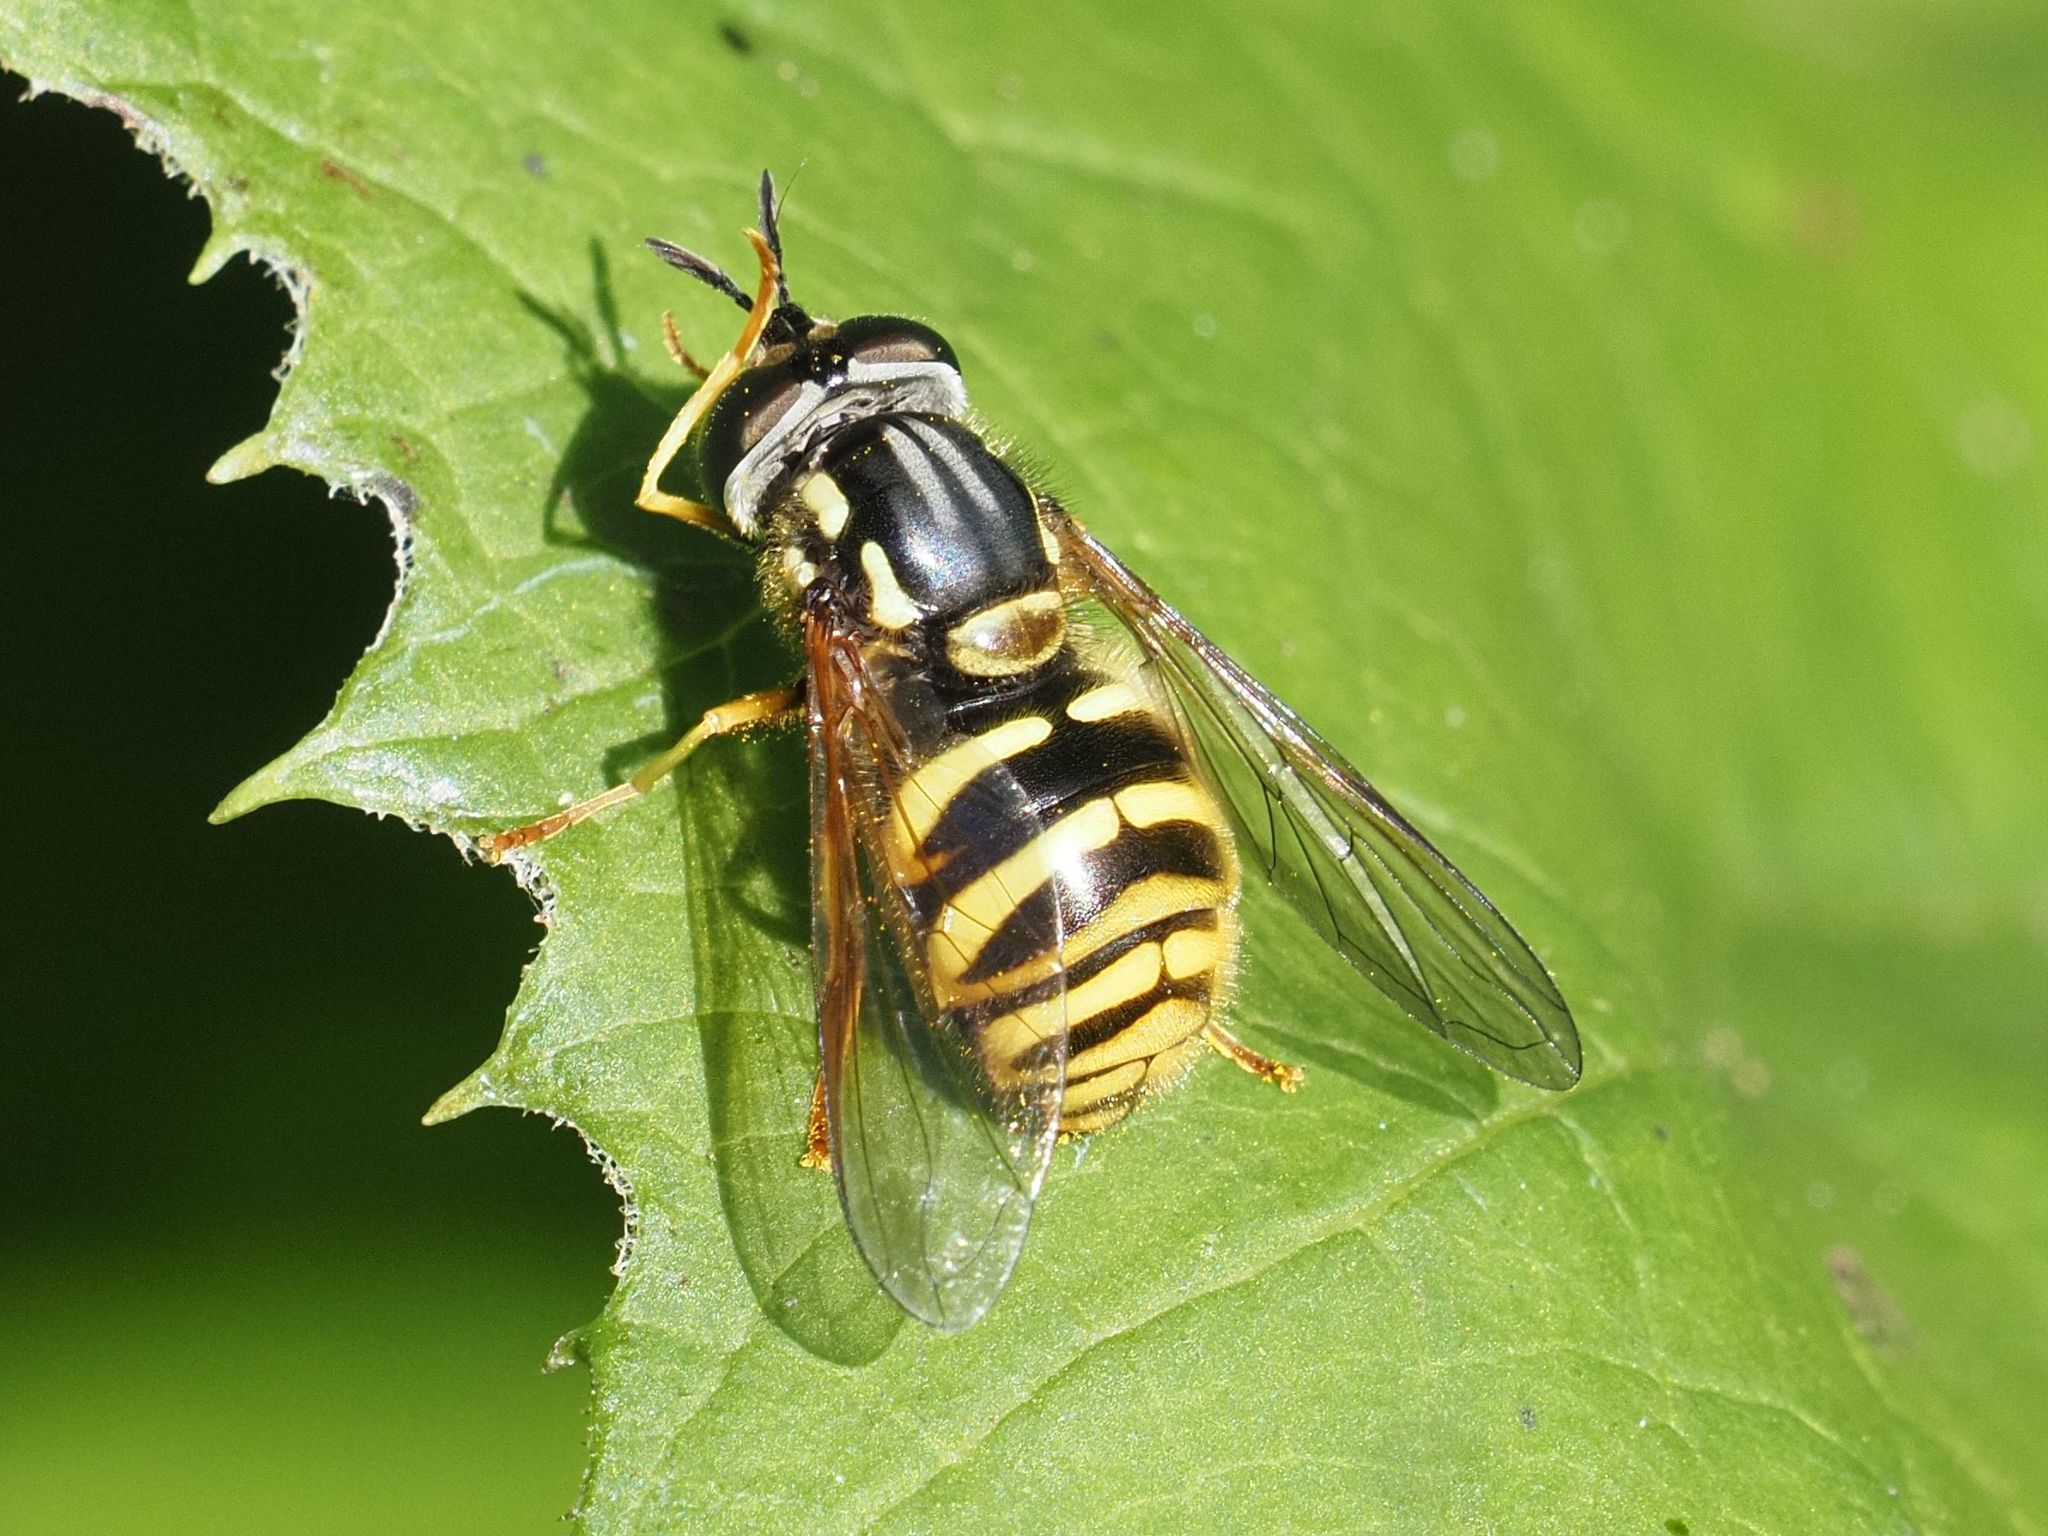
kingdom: Animalia
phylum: Arthropoda
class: Insecta
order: Diptera
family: Syrphidae
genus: Chrysotoxum
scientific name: Chrysotoxum arcuatum
